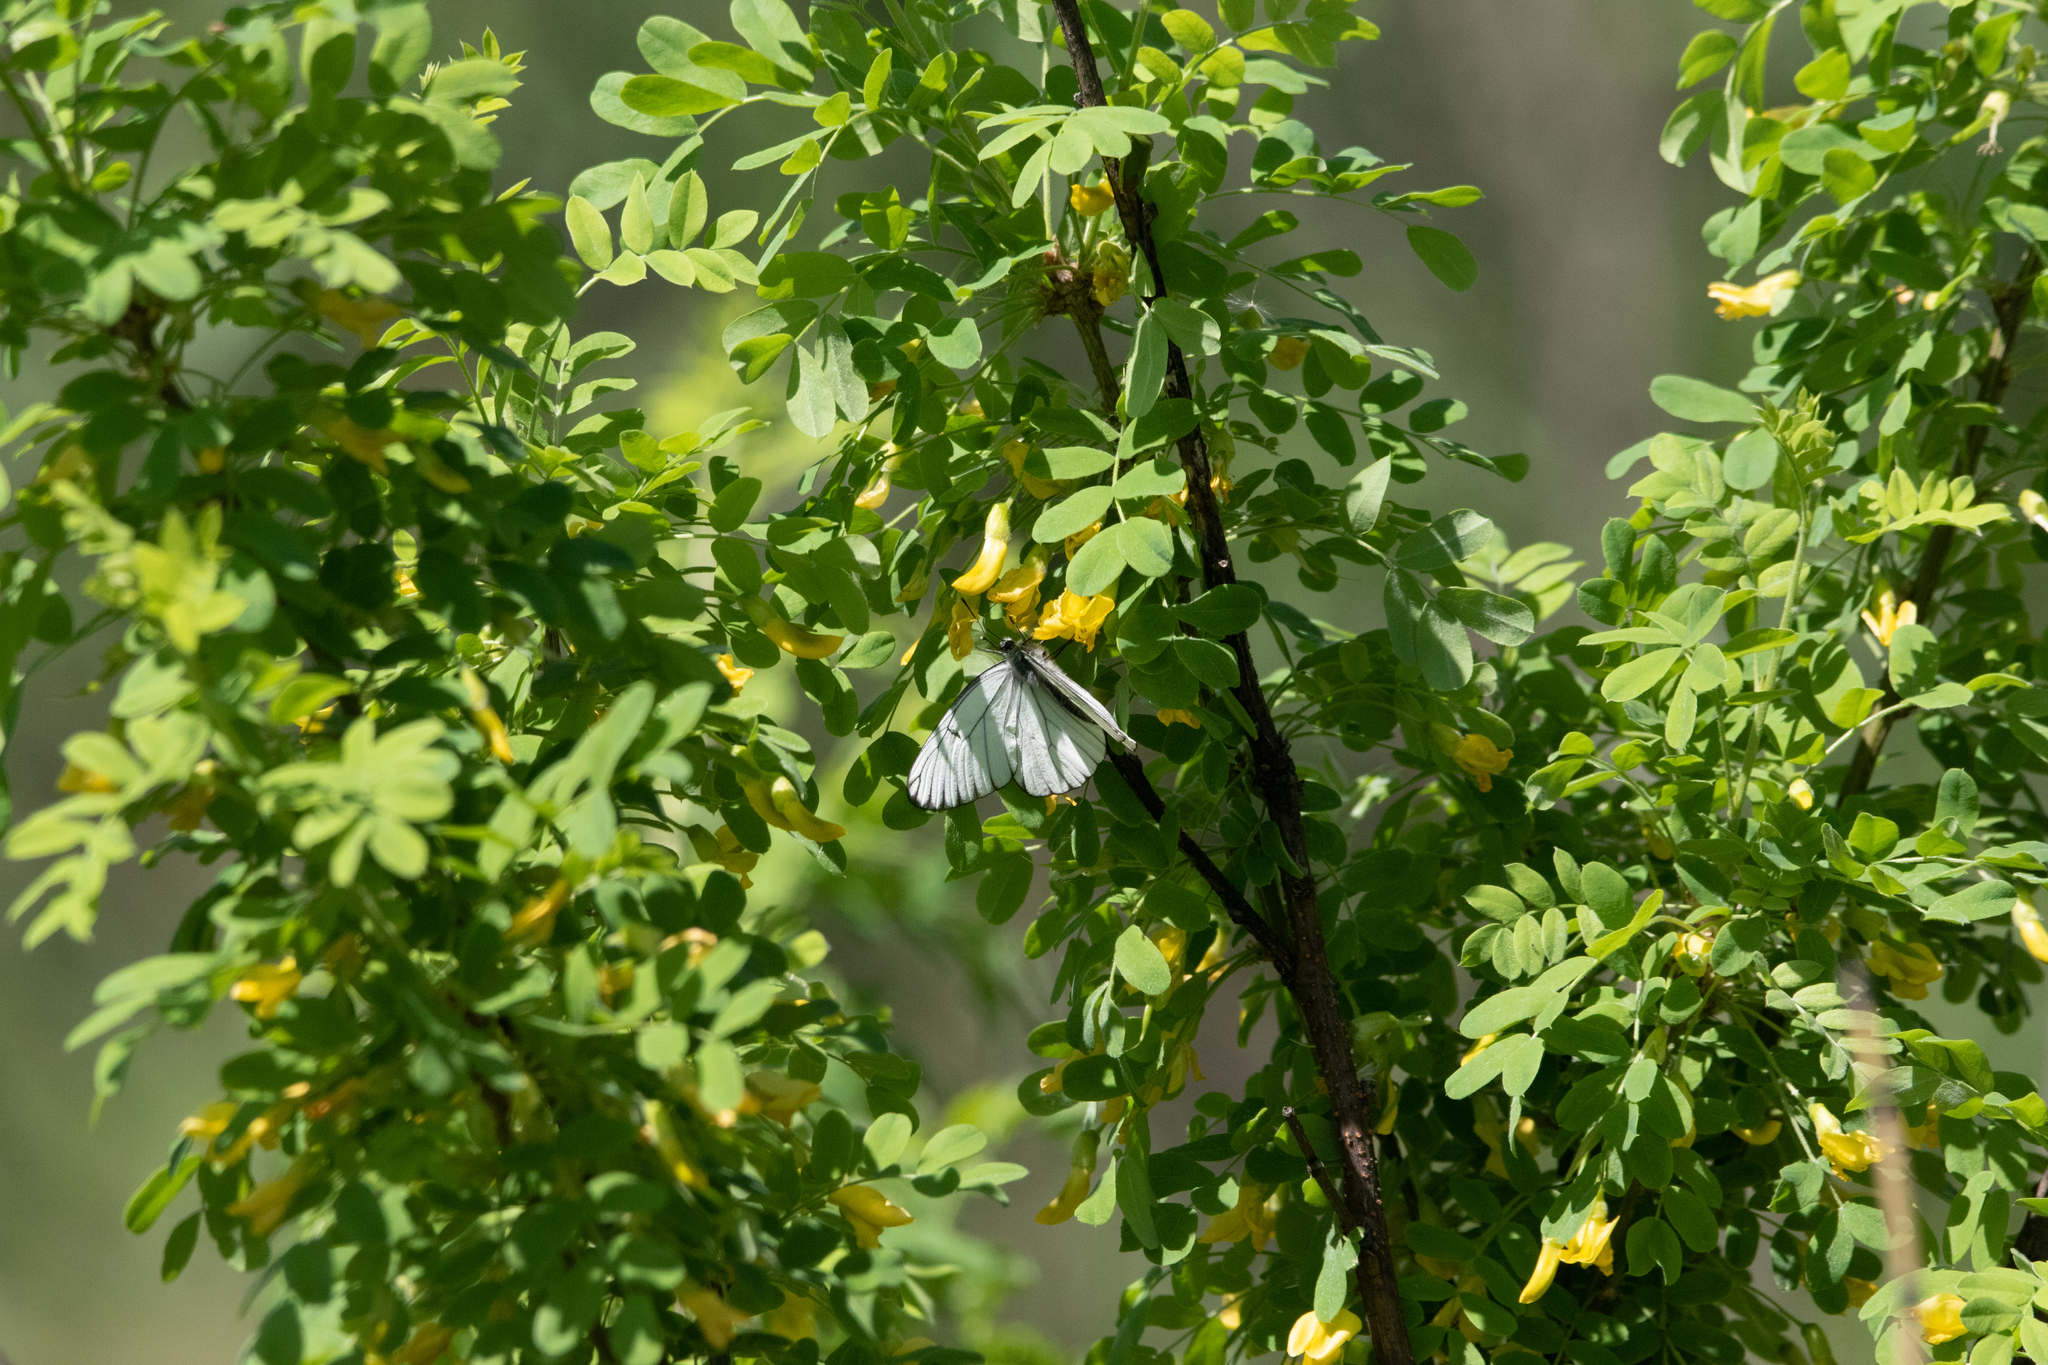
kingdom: Animalia
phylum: Arthropoda
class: Insecta
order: Lepidoptera
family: Pieridae
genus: Aporia
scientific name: Aporia crataegi
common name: Black-veined white
